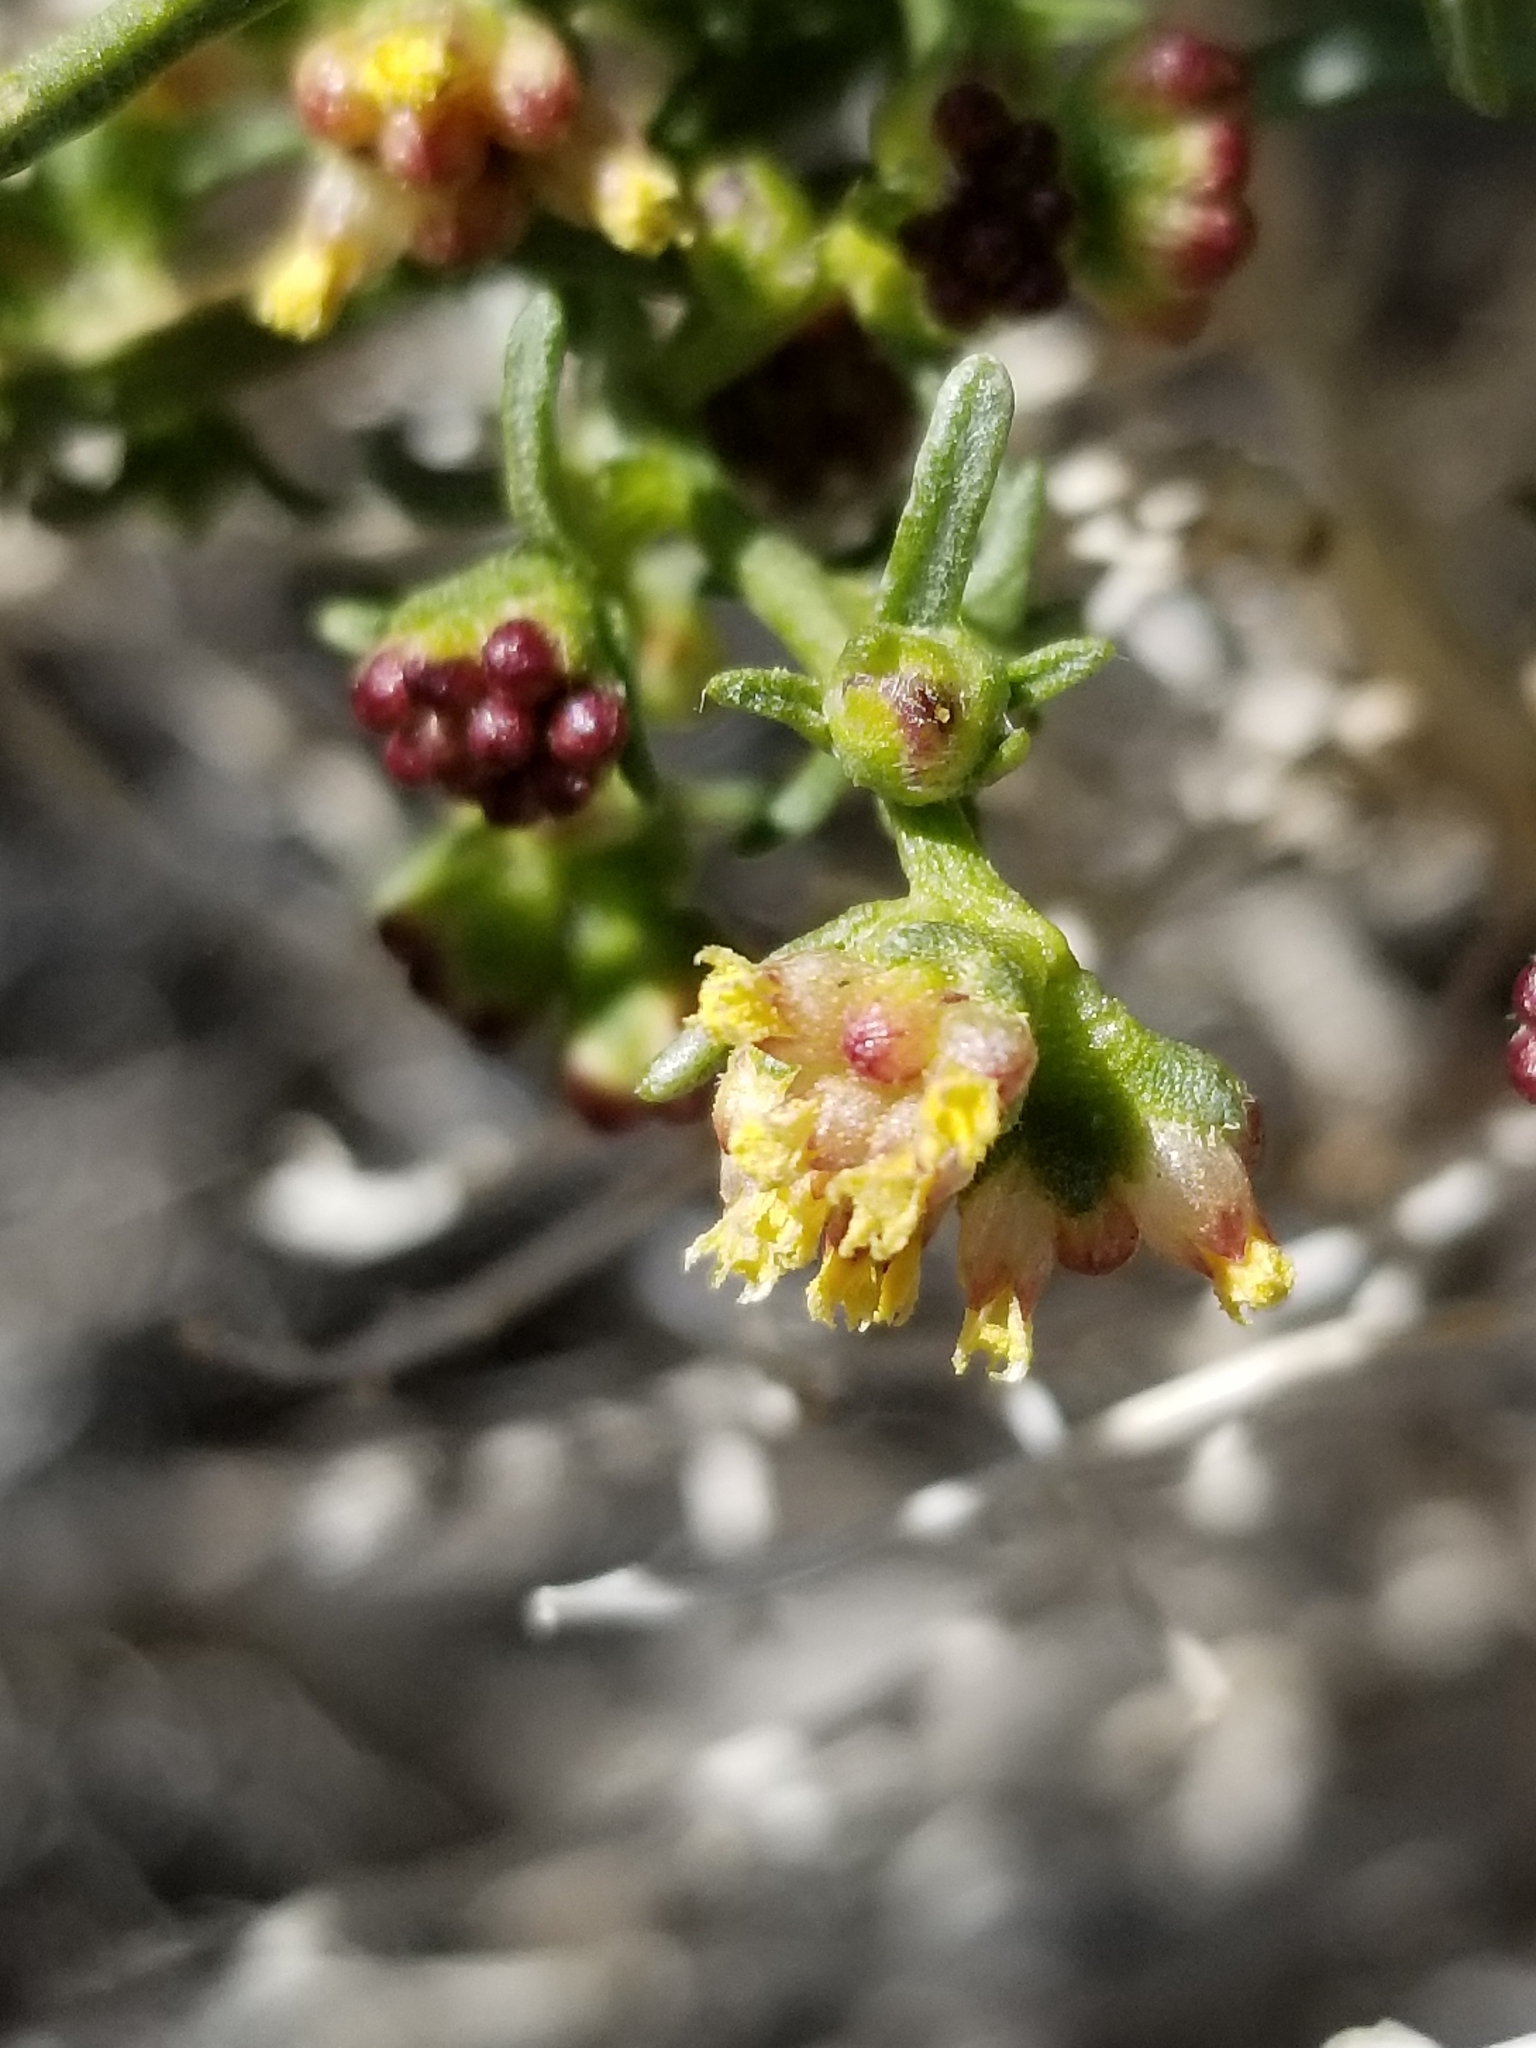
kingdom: Plantae
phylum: Tracheophyta
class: Magnoliopsida
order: Asterales
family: Asteraceae
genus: Ambrosia
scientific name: Ambrosia salsola
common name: Burrobrush
